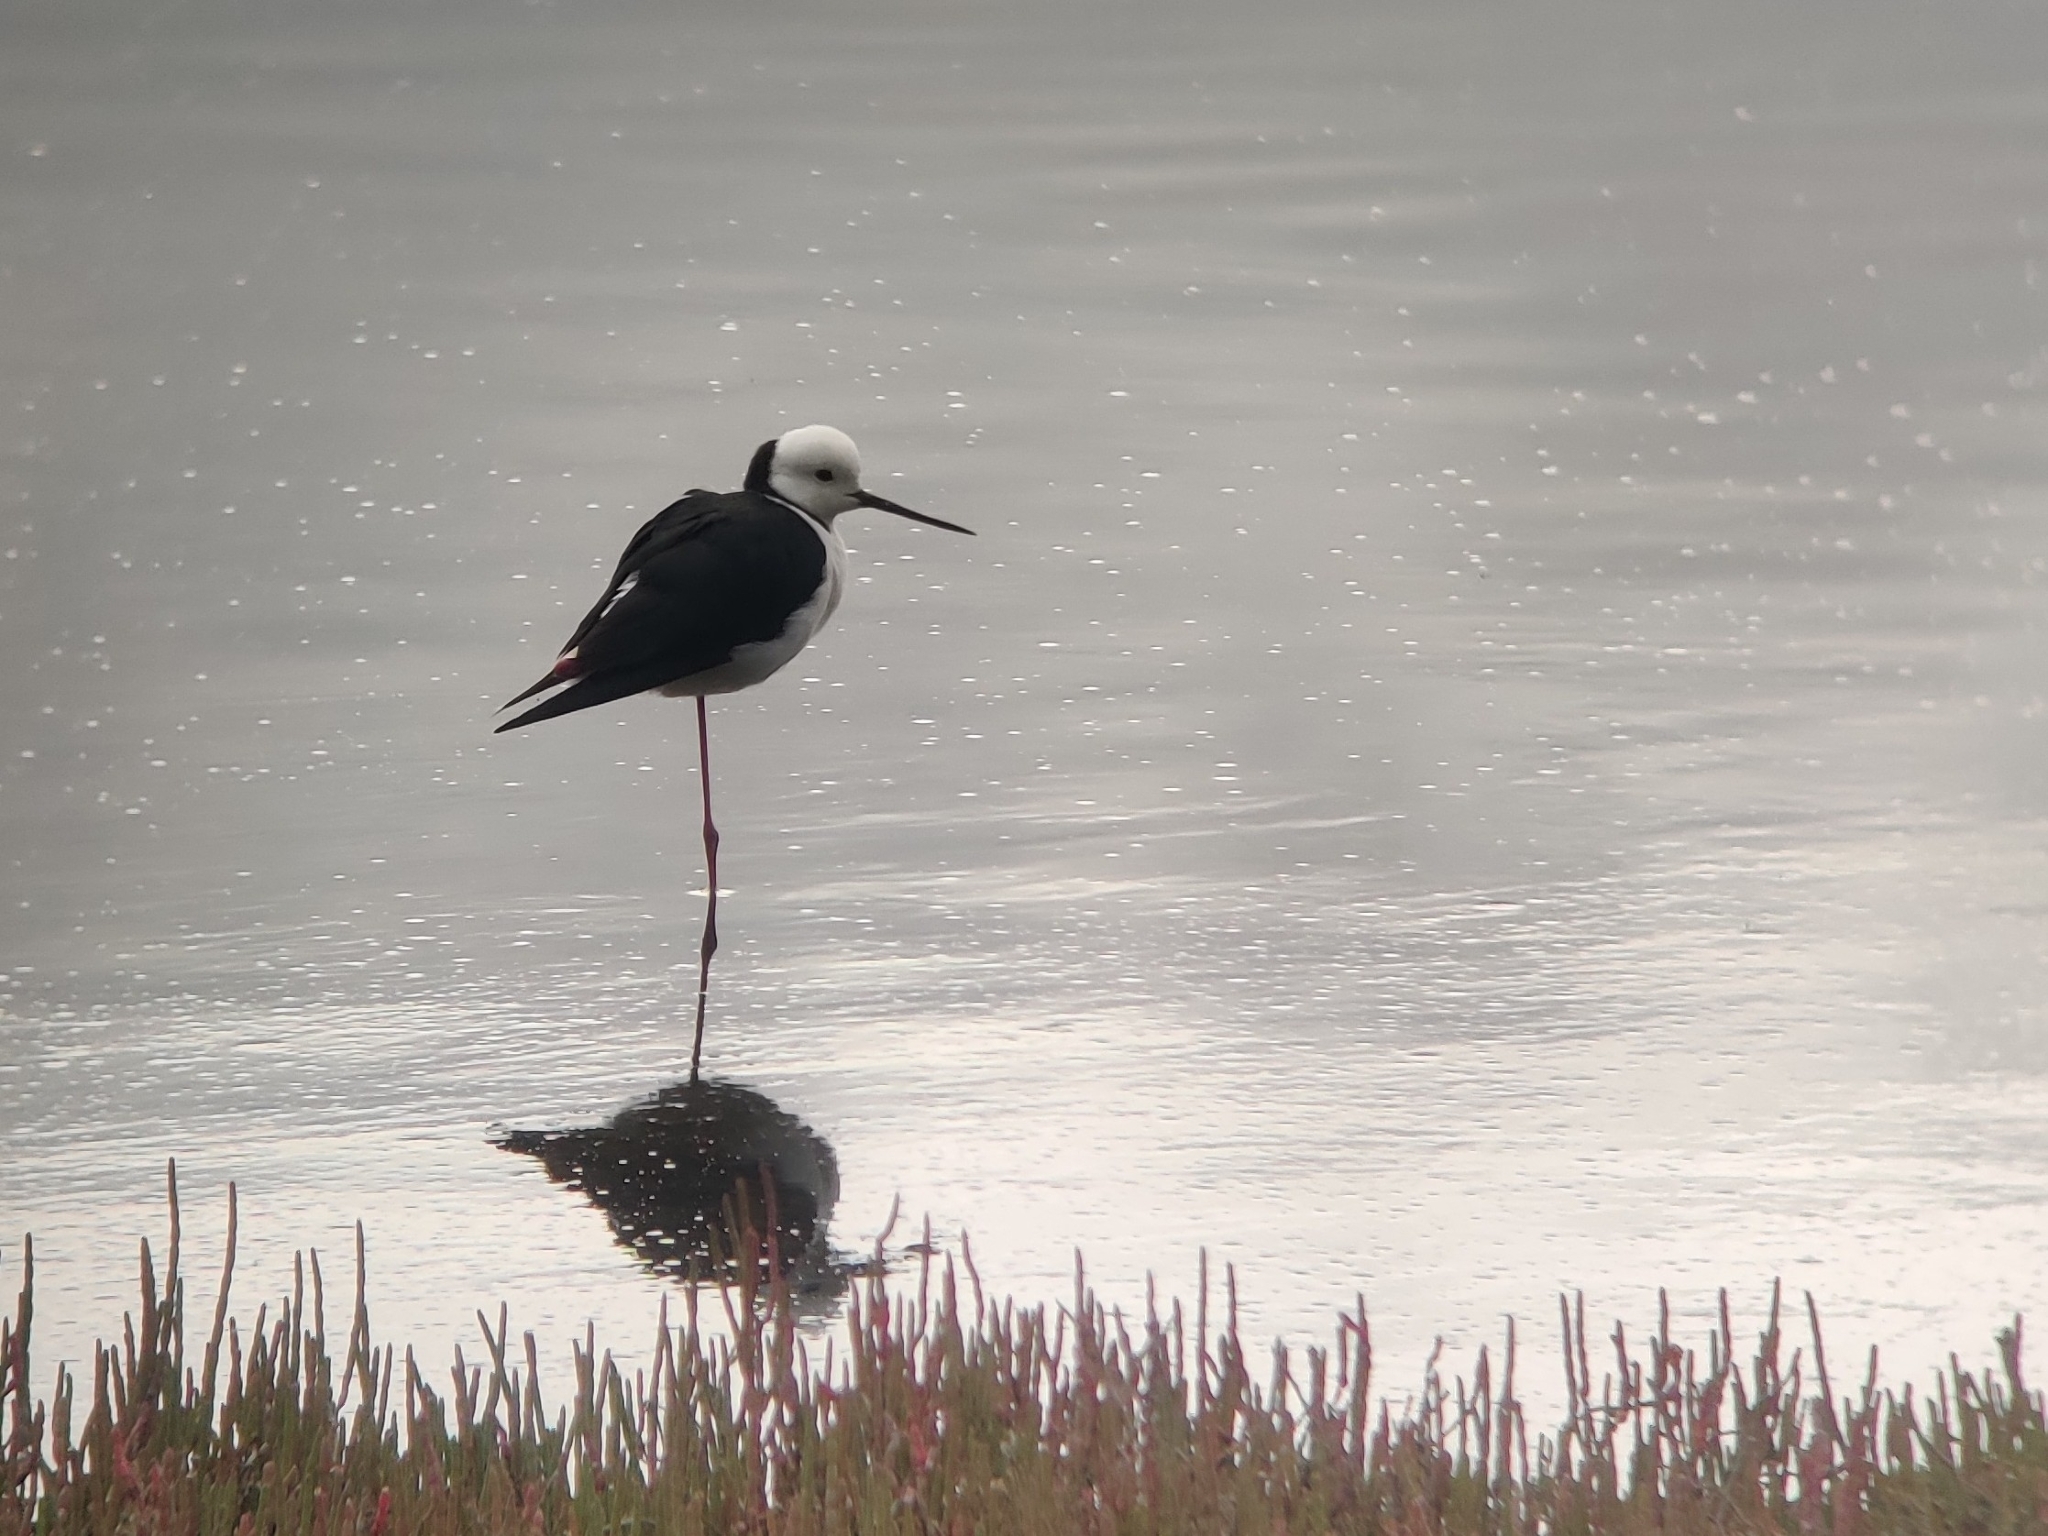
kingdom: Animalia
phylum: Chordata
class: Aves
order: Charadriiformes
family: Recurvirostridae
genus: Himantopus
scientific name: Himantopus leucocephalus
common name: White-headed stilt
